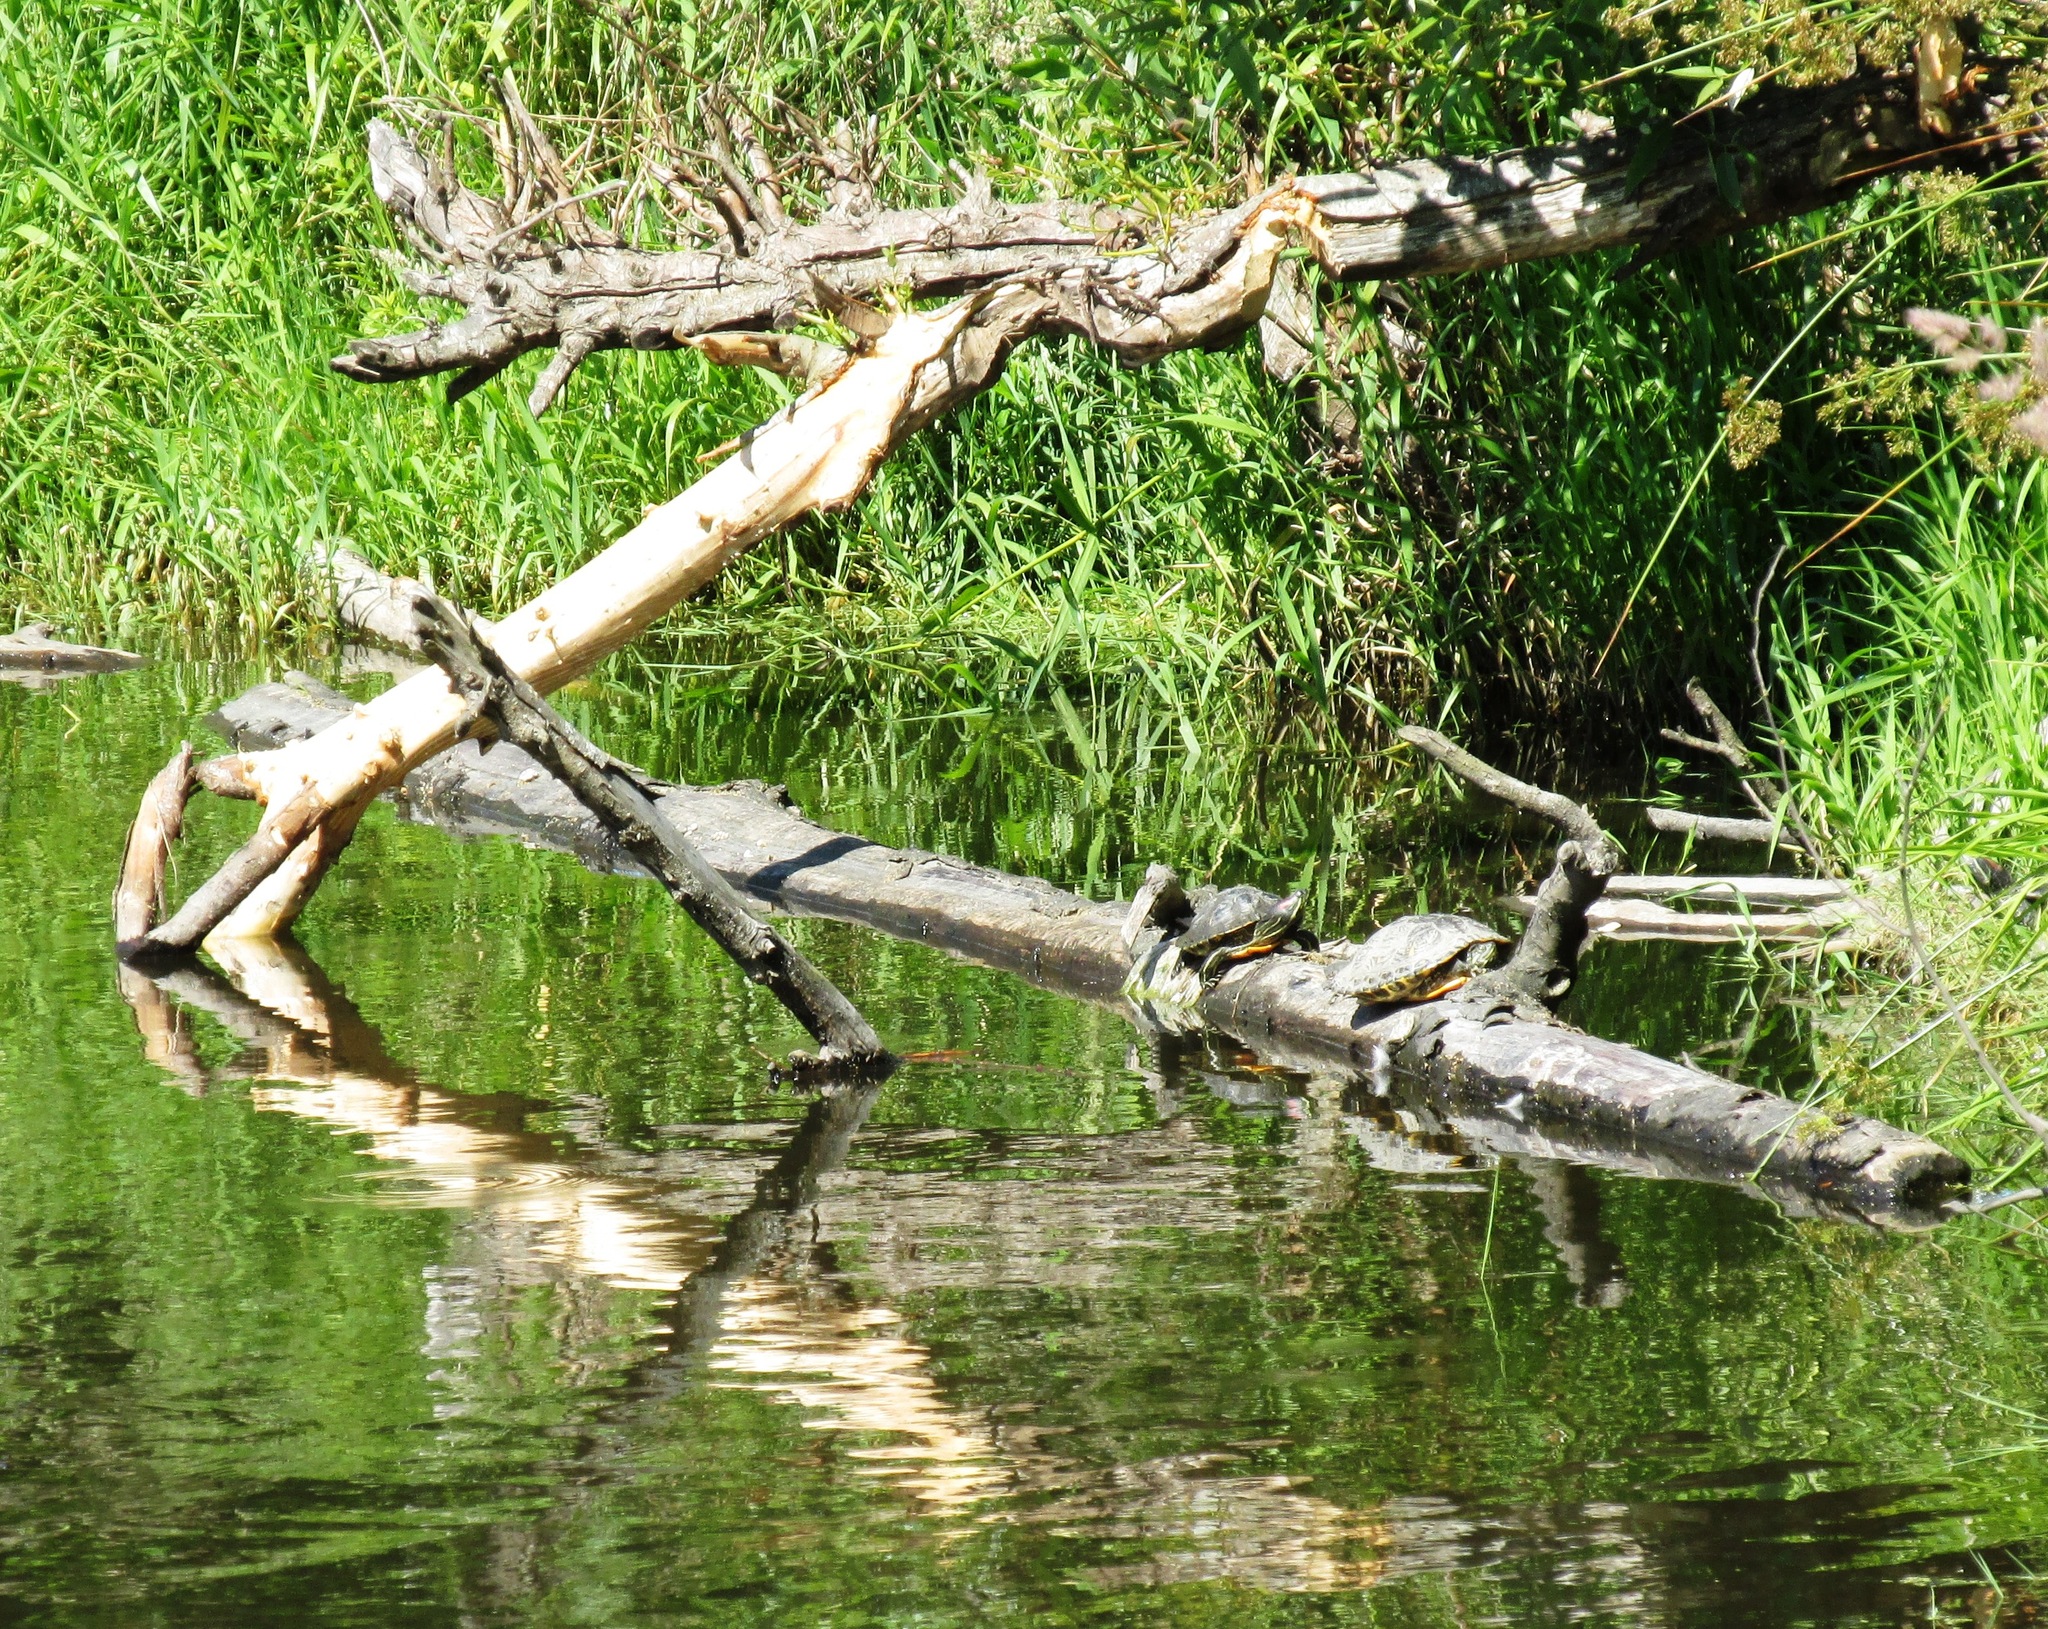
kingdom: Animalia
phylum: Chordata
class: Testudines
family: Emydidae
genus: Trachemys
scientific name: Trachemys scripta
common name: Slider
